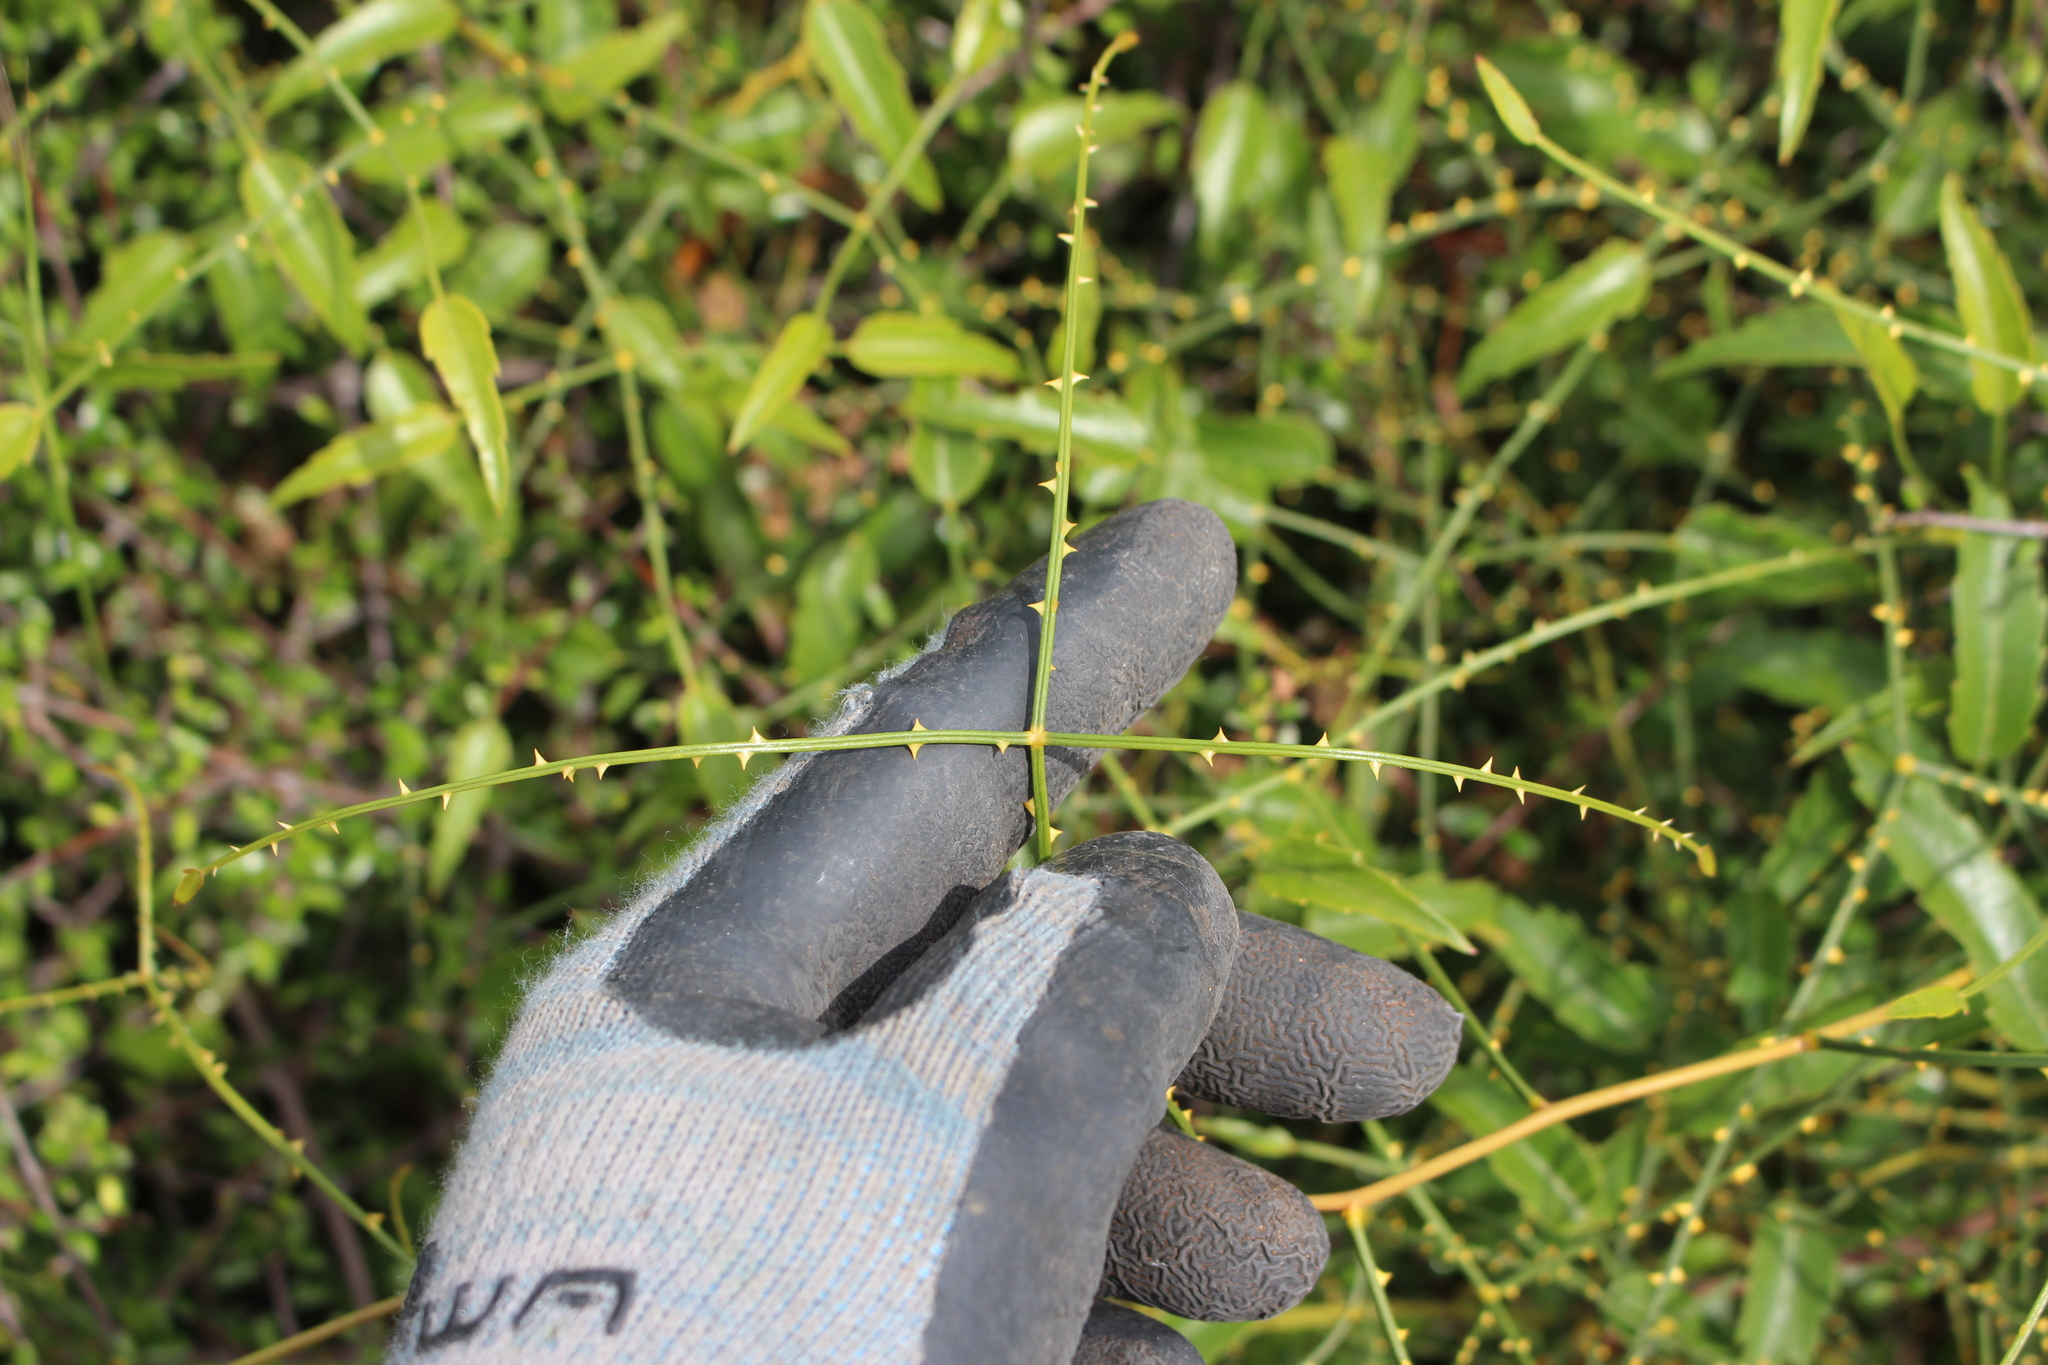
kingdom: Plantae
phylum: Tracheophyta
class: Magnoliopsida
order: Rosales
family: Rosaceae
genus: Rubus
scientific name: Rubus squarrosus
